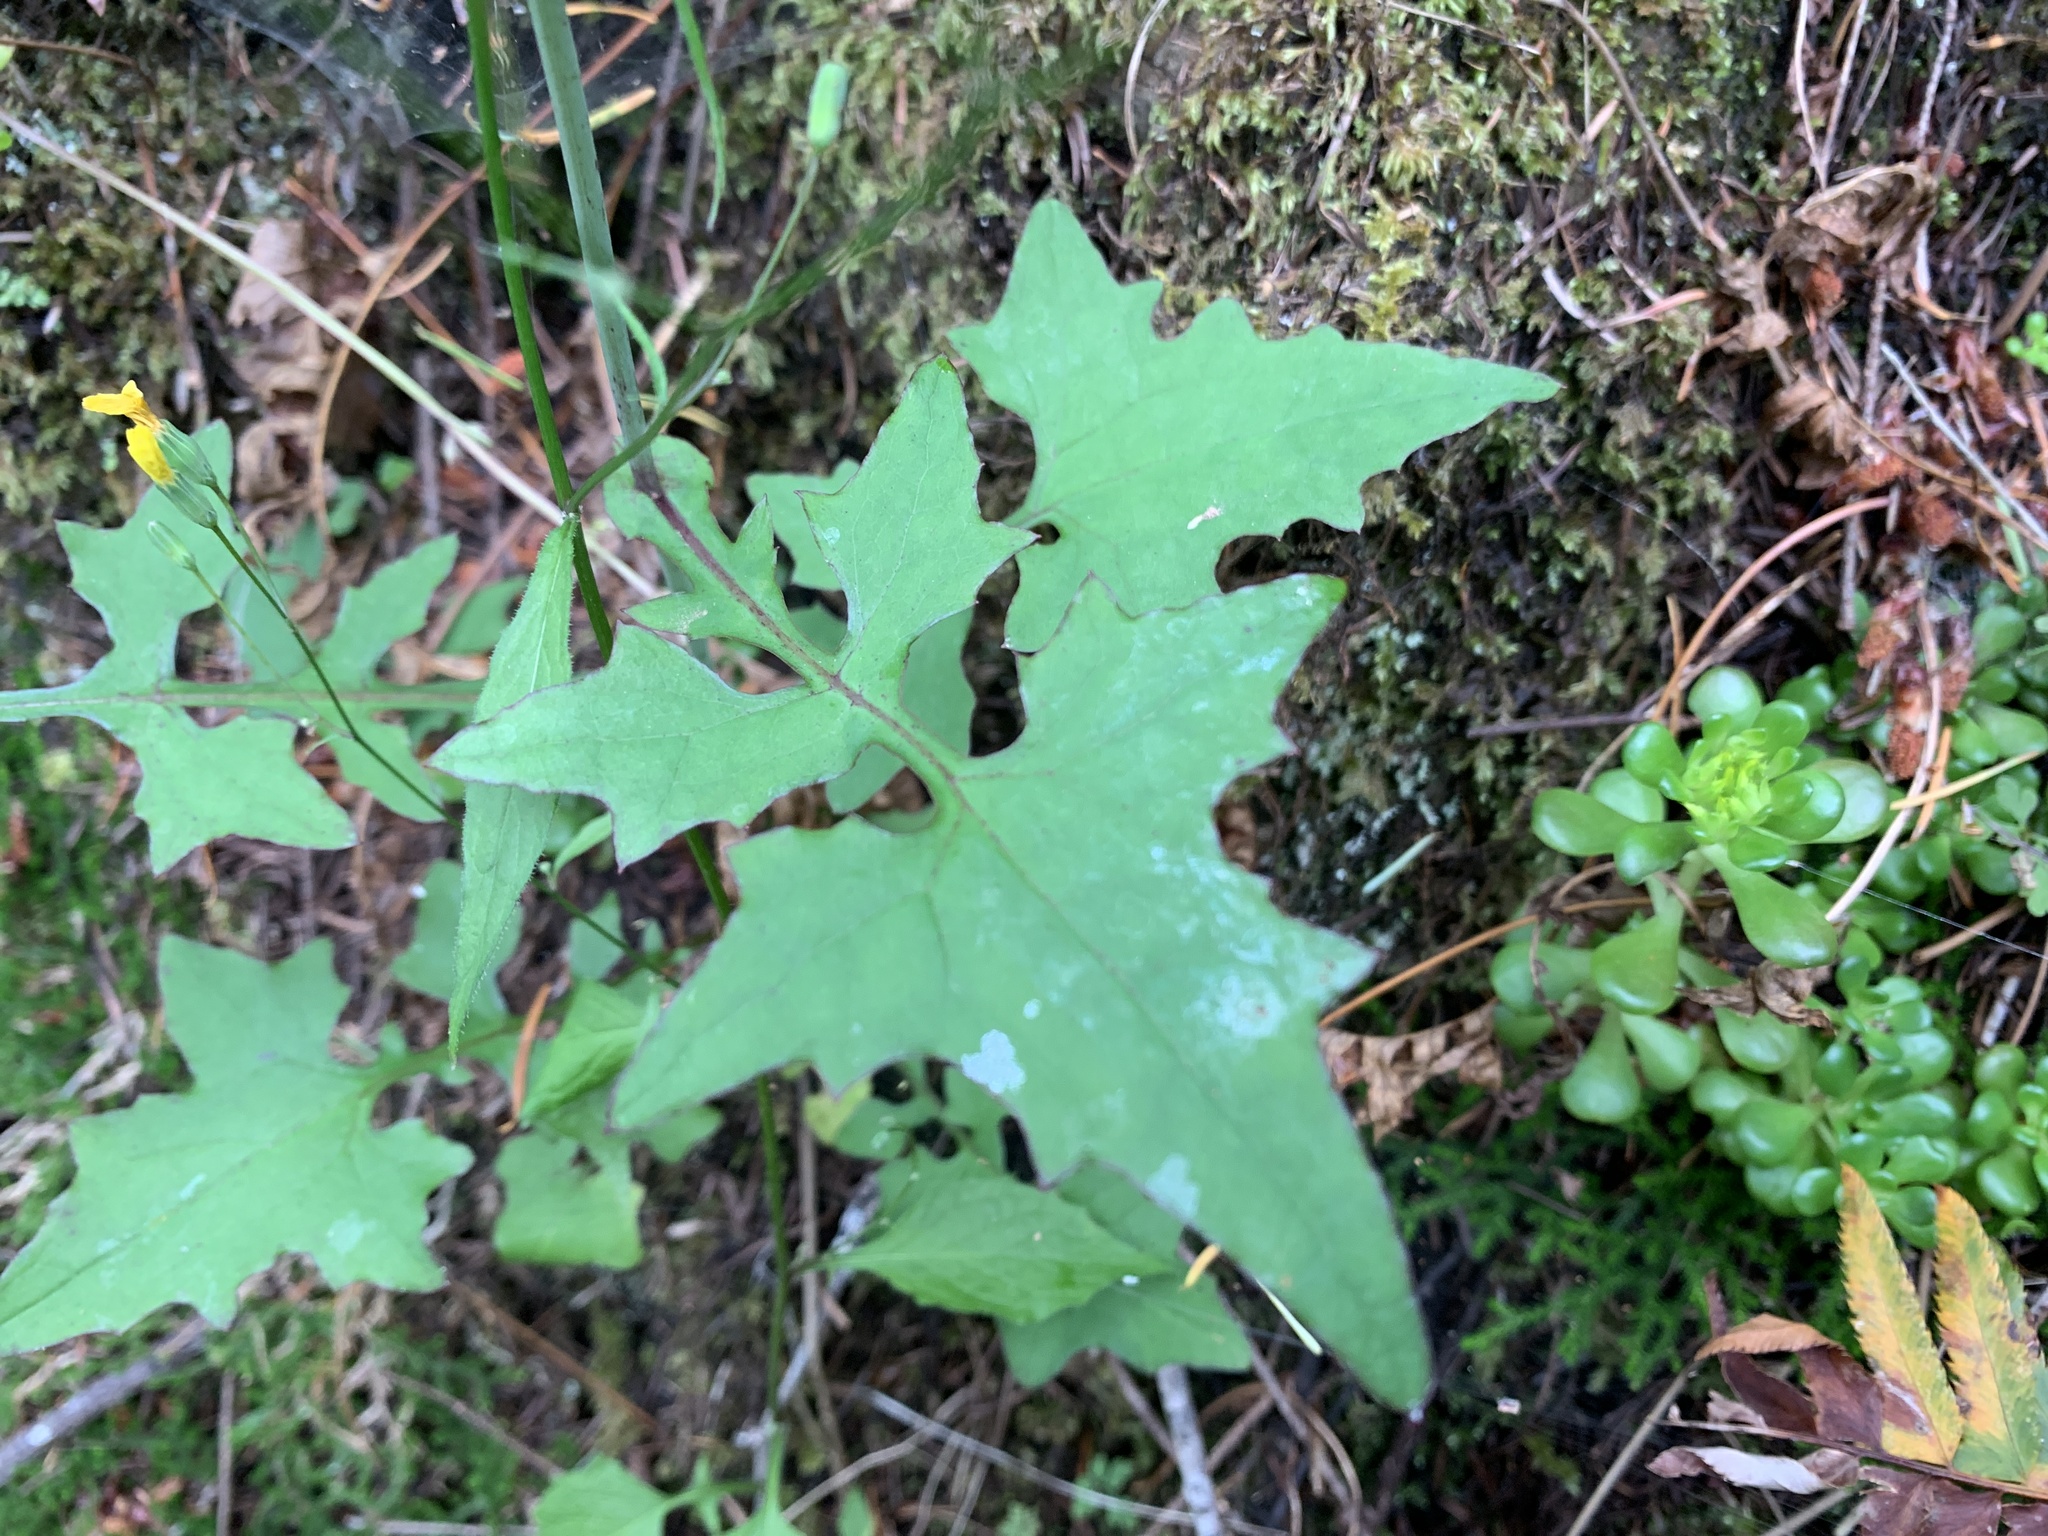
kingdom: Plantae
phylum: Tracheophyta
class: Magnoliopsida
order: Asterales
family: Asteraceae
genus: Mycelis
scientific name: Mycelis muralis
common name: Wall lettuce
